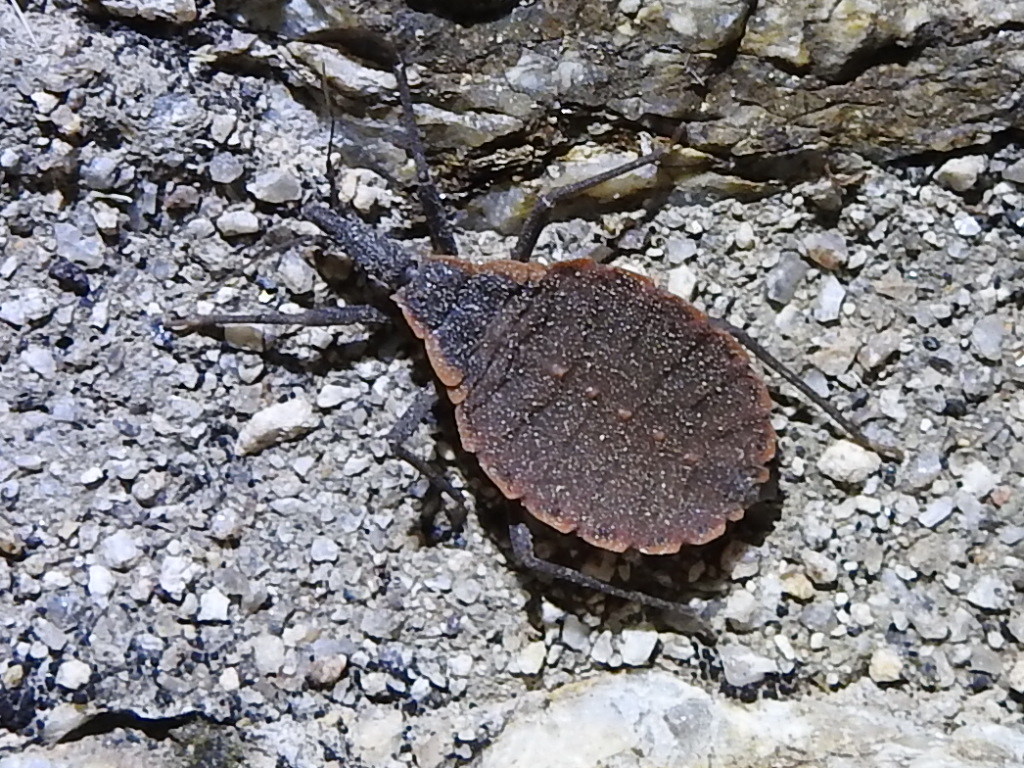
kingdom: Animalia
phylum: Arthropoda
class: Insecta
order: Hemiptera
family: Reduviidae
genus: Triatoma
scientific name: Triatoma rubida
